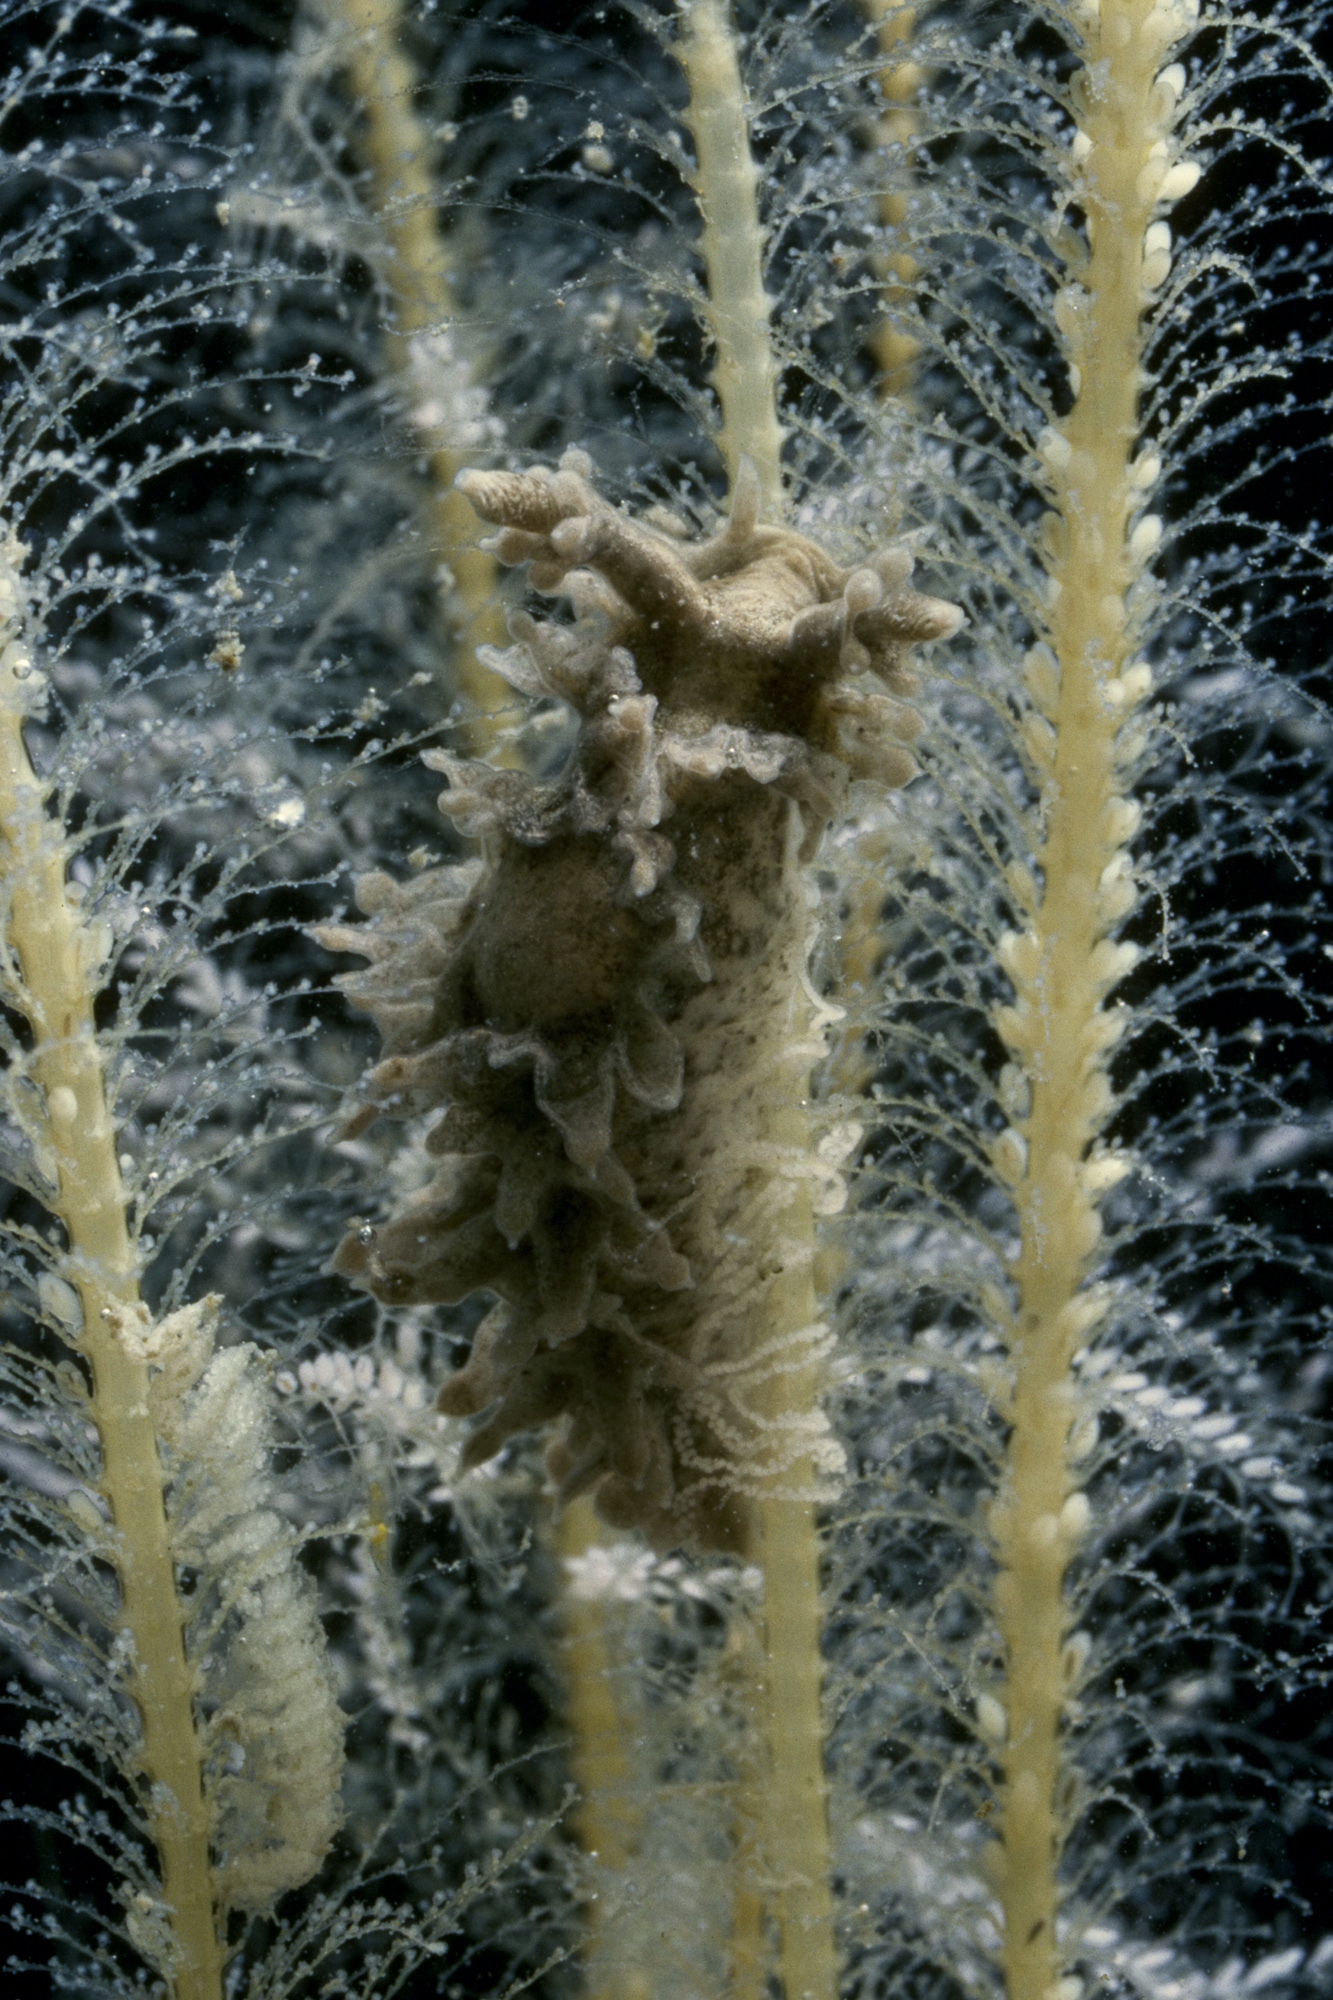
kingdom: Animalia
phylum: Mollusca
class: Gastropoda
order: Nudibranchia
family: Lomanotidae
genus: Lomanotus
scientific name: Lomanotus marmoratus
